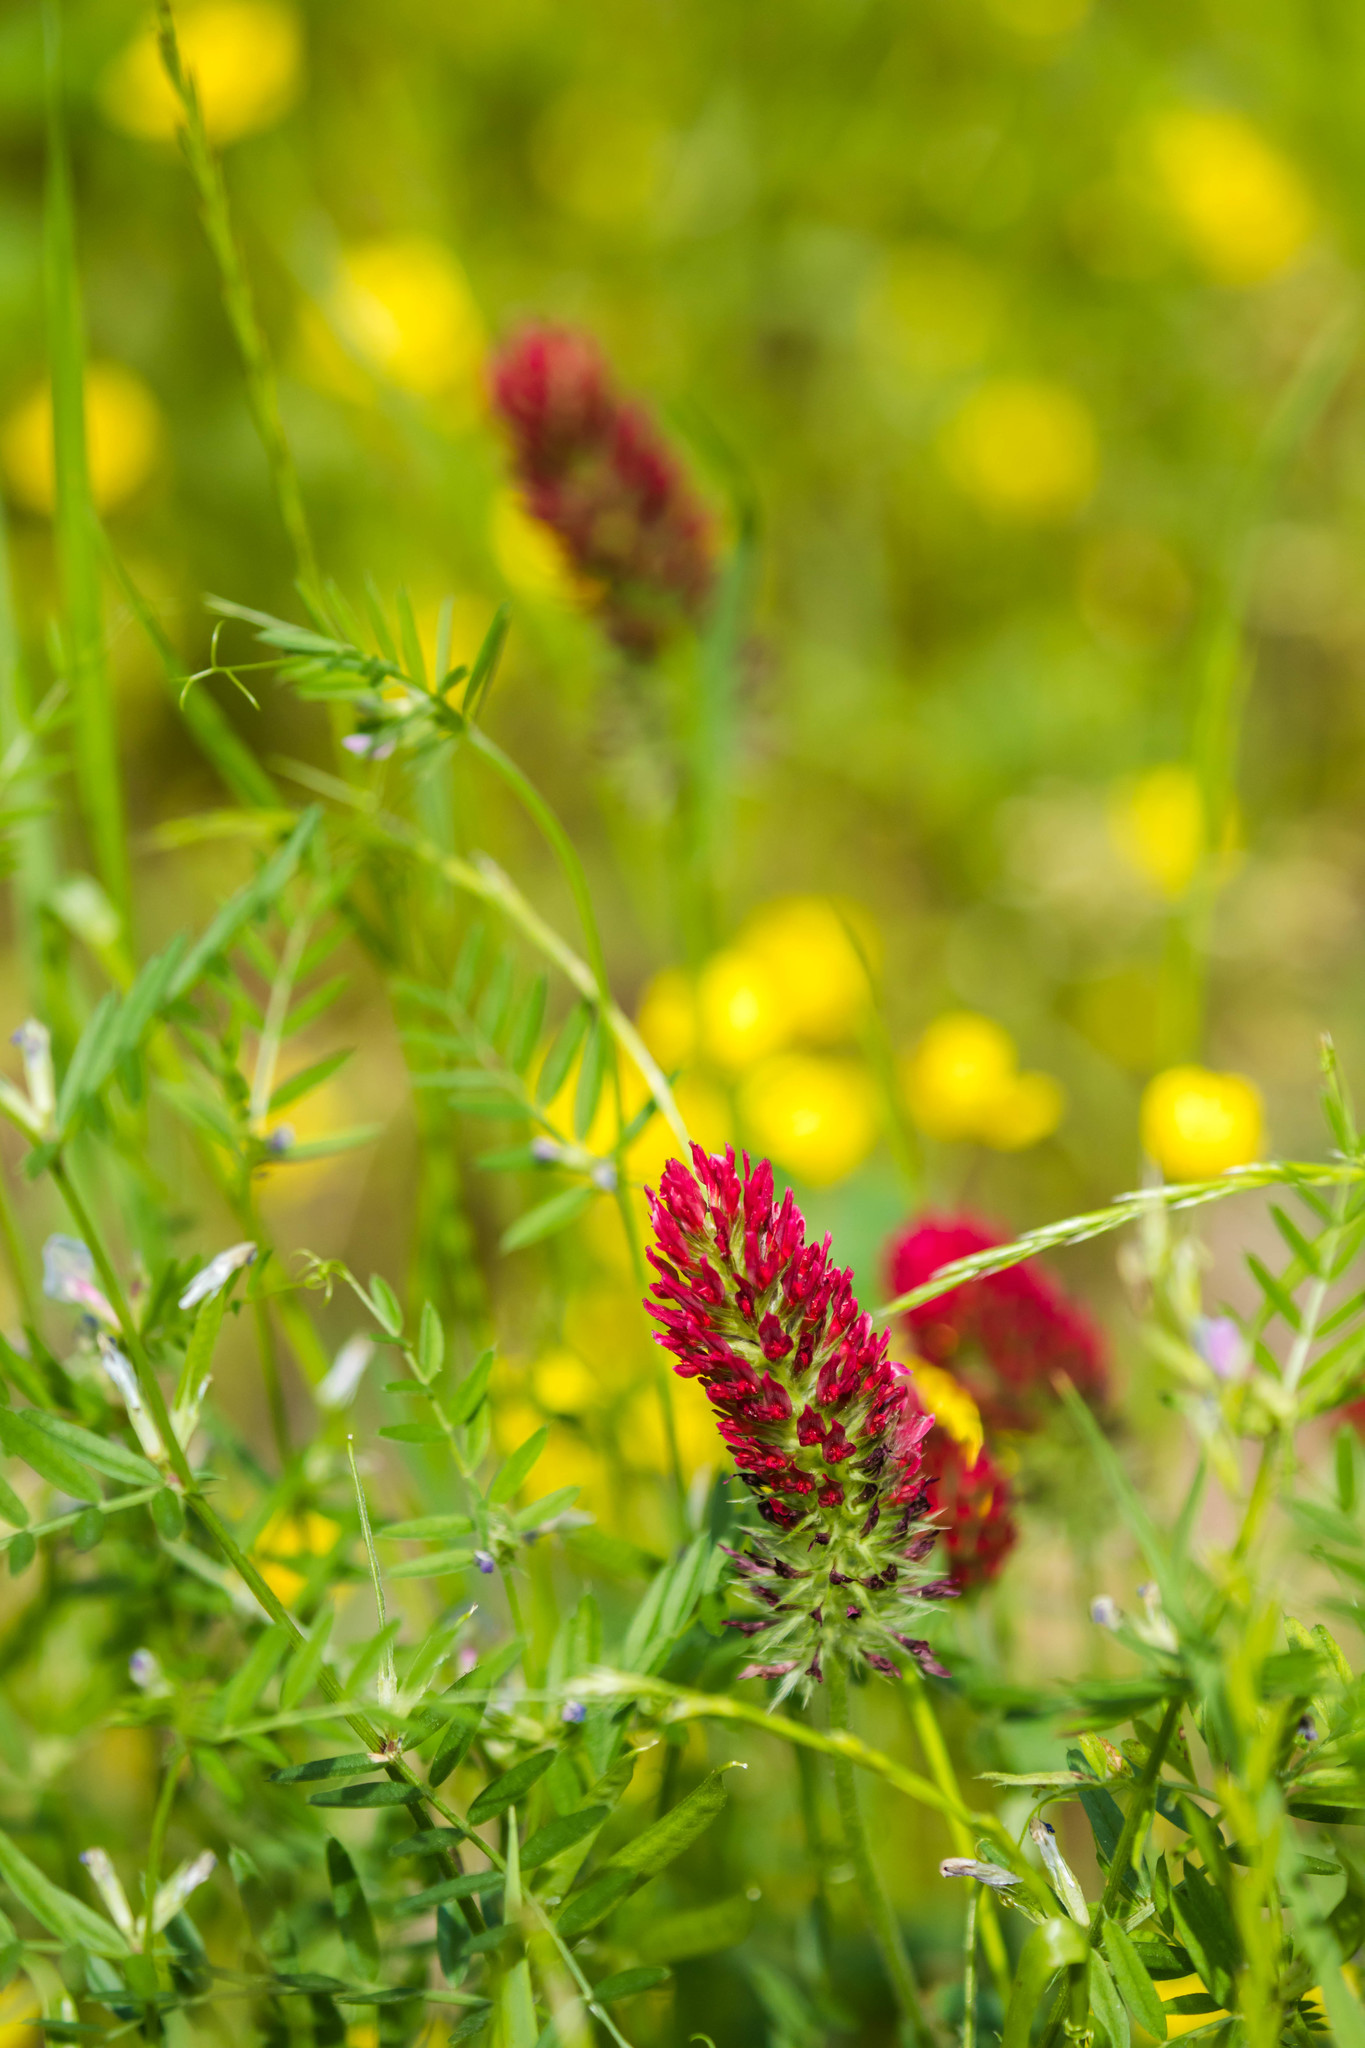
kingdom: Plantae
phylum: Tracheophyta
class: Magnoliopsida
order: Fabales
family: Fabaceae
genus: Trifolium
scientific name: Trifolium incarnatum
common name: Crimson clover
